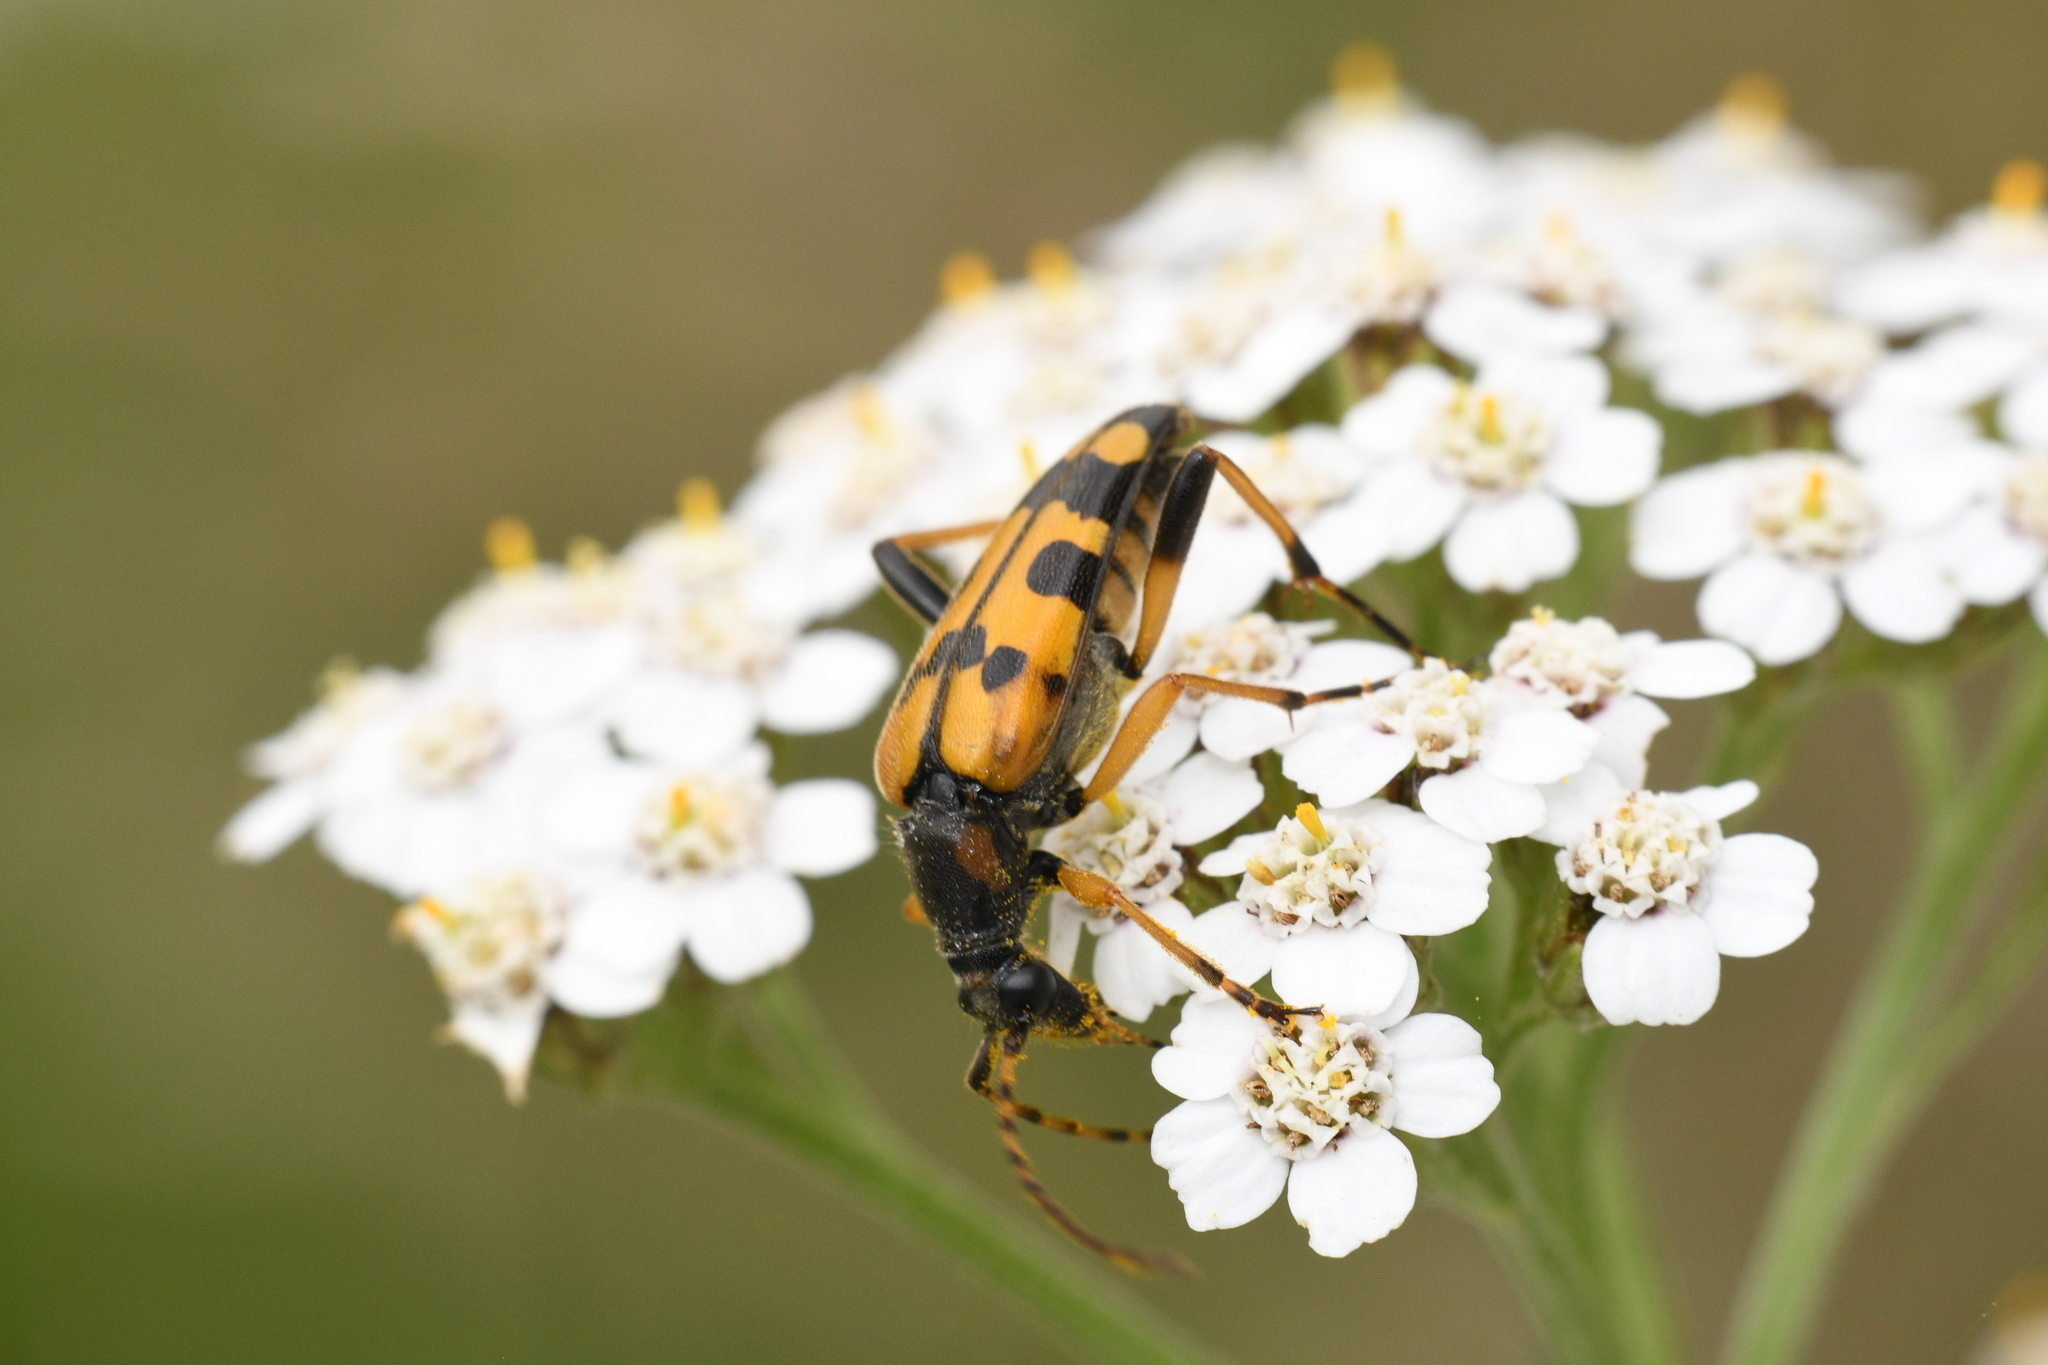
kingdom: Animalia
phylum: Arthropoda
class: Insecta
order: Coleoptera
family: Cerambycidae
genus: Rutpela
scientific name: Rutpela maculata
